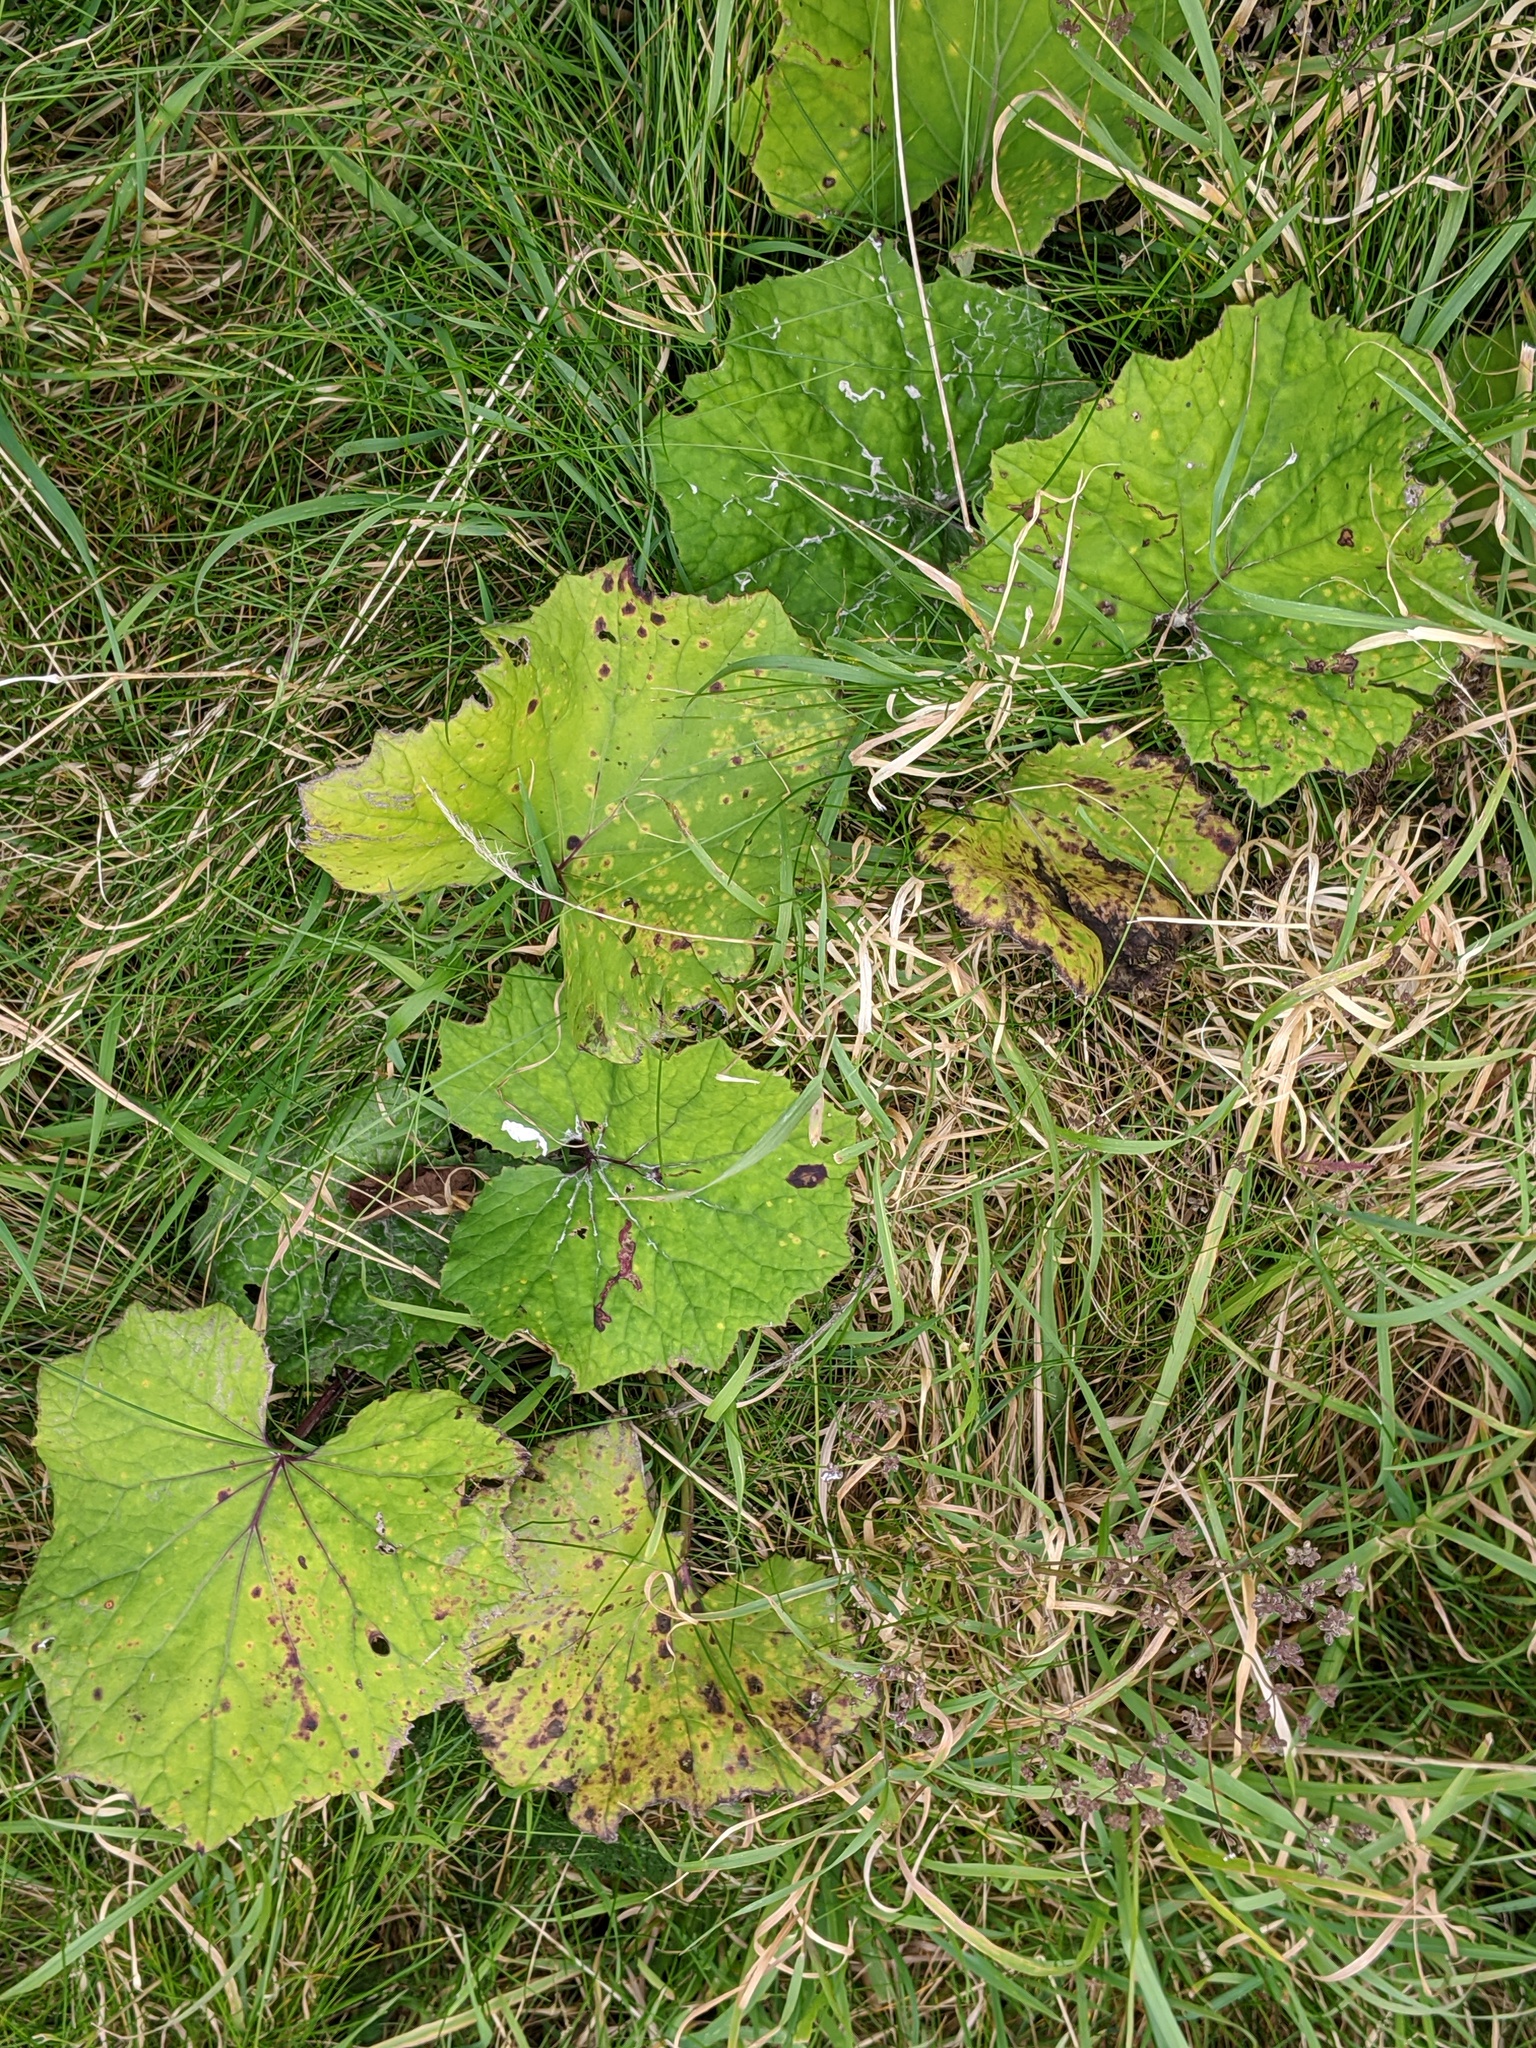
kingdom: Plantae
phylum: Tracheophyta
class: Magnoliopsida
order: Asterales
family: Asteraceae
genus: Tussilago
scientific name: Tussilago farfara
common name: Coltsfoot
